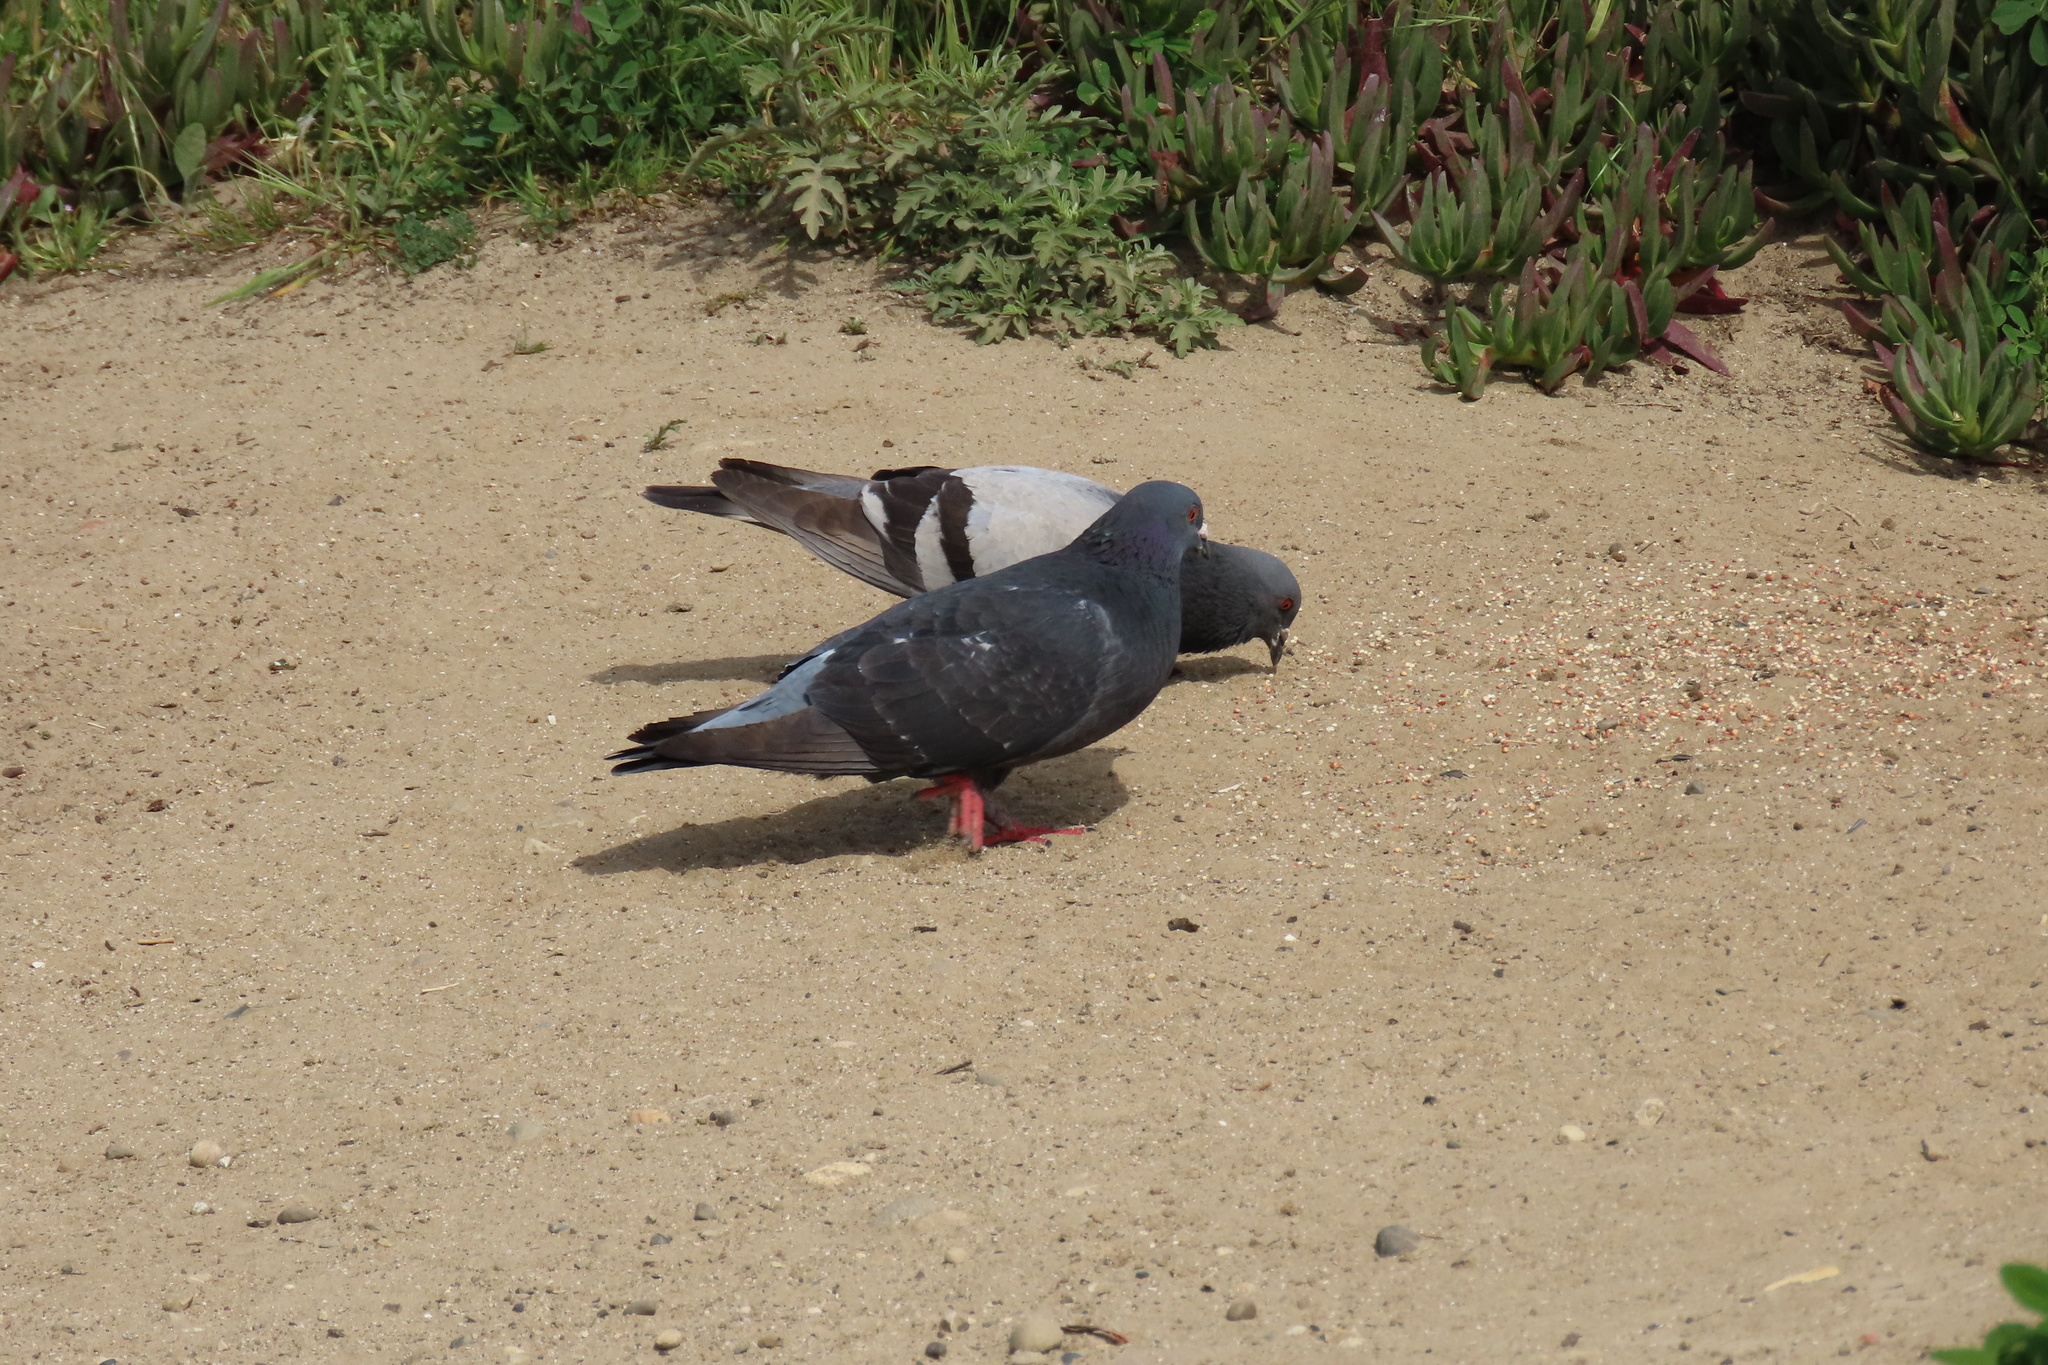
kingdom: Animalia
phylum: Chordata
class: Aves
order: Columbiformes
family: Columbidae
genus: Columba
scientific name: Columba livia
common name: Rock pigeon
